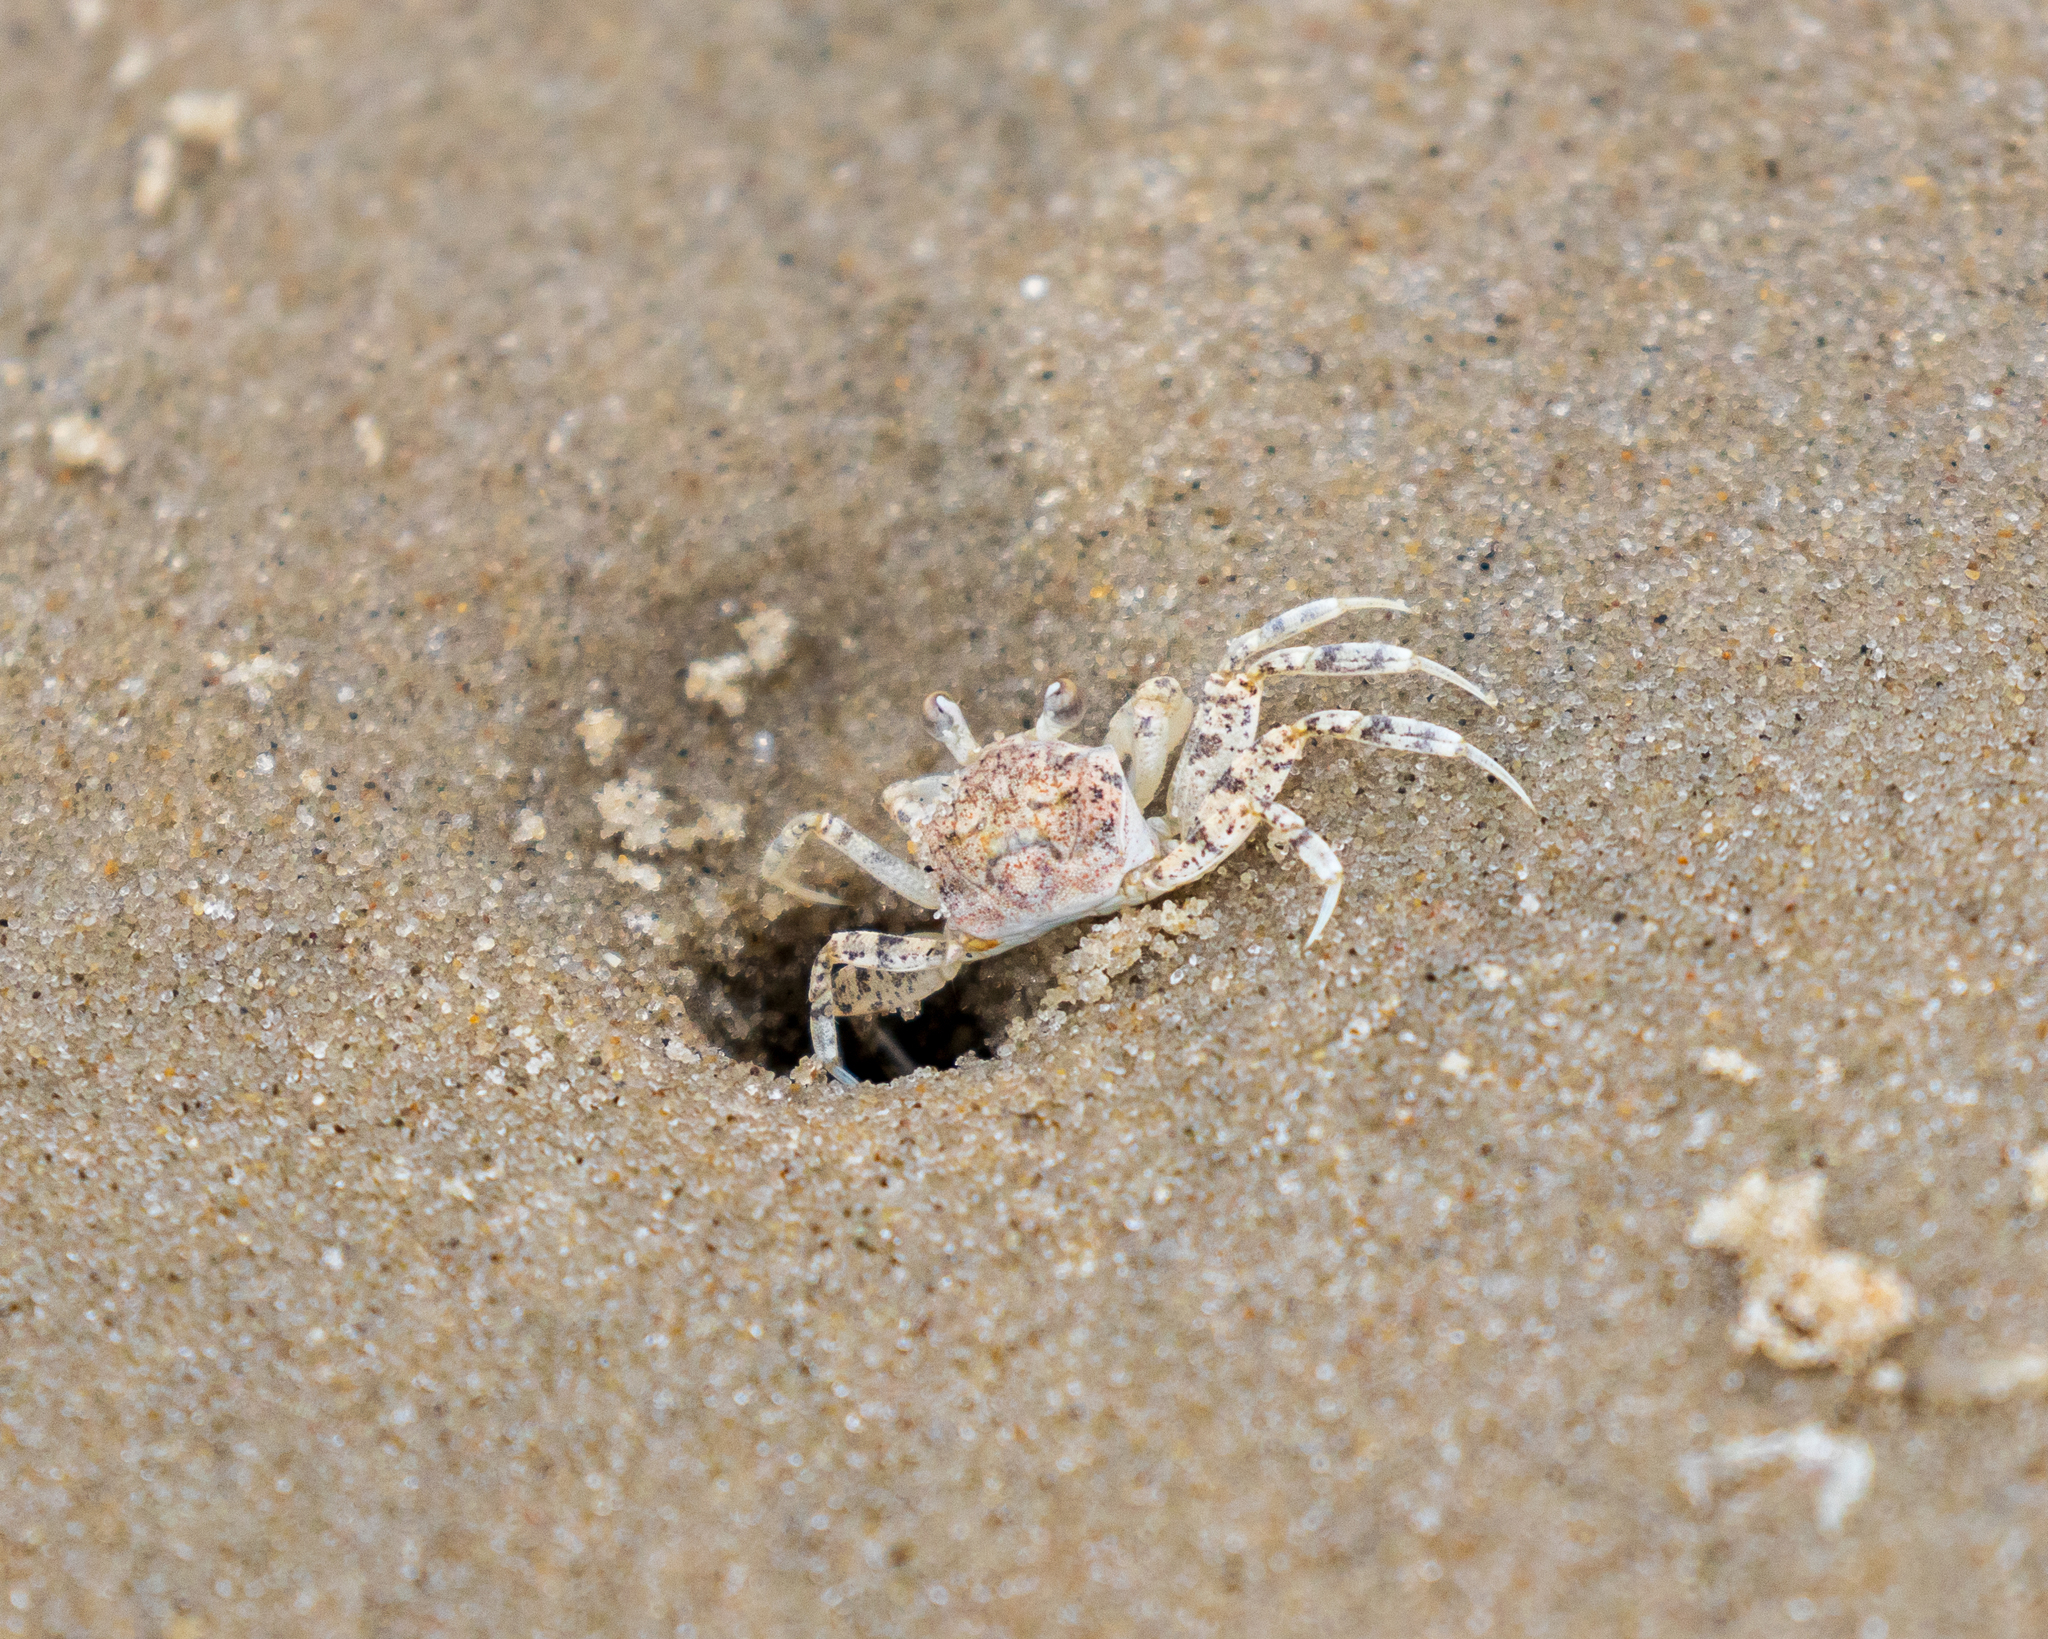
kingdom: Animalia
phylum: Arthropoda
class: Malacostraca
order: Decapoda
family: Ocypodidae
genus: Ocypode
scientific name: Ocypode quadrata
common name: Ghost crab
